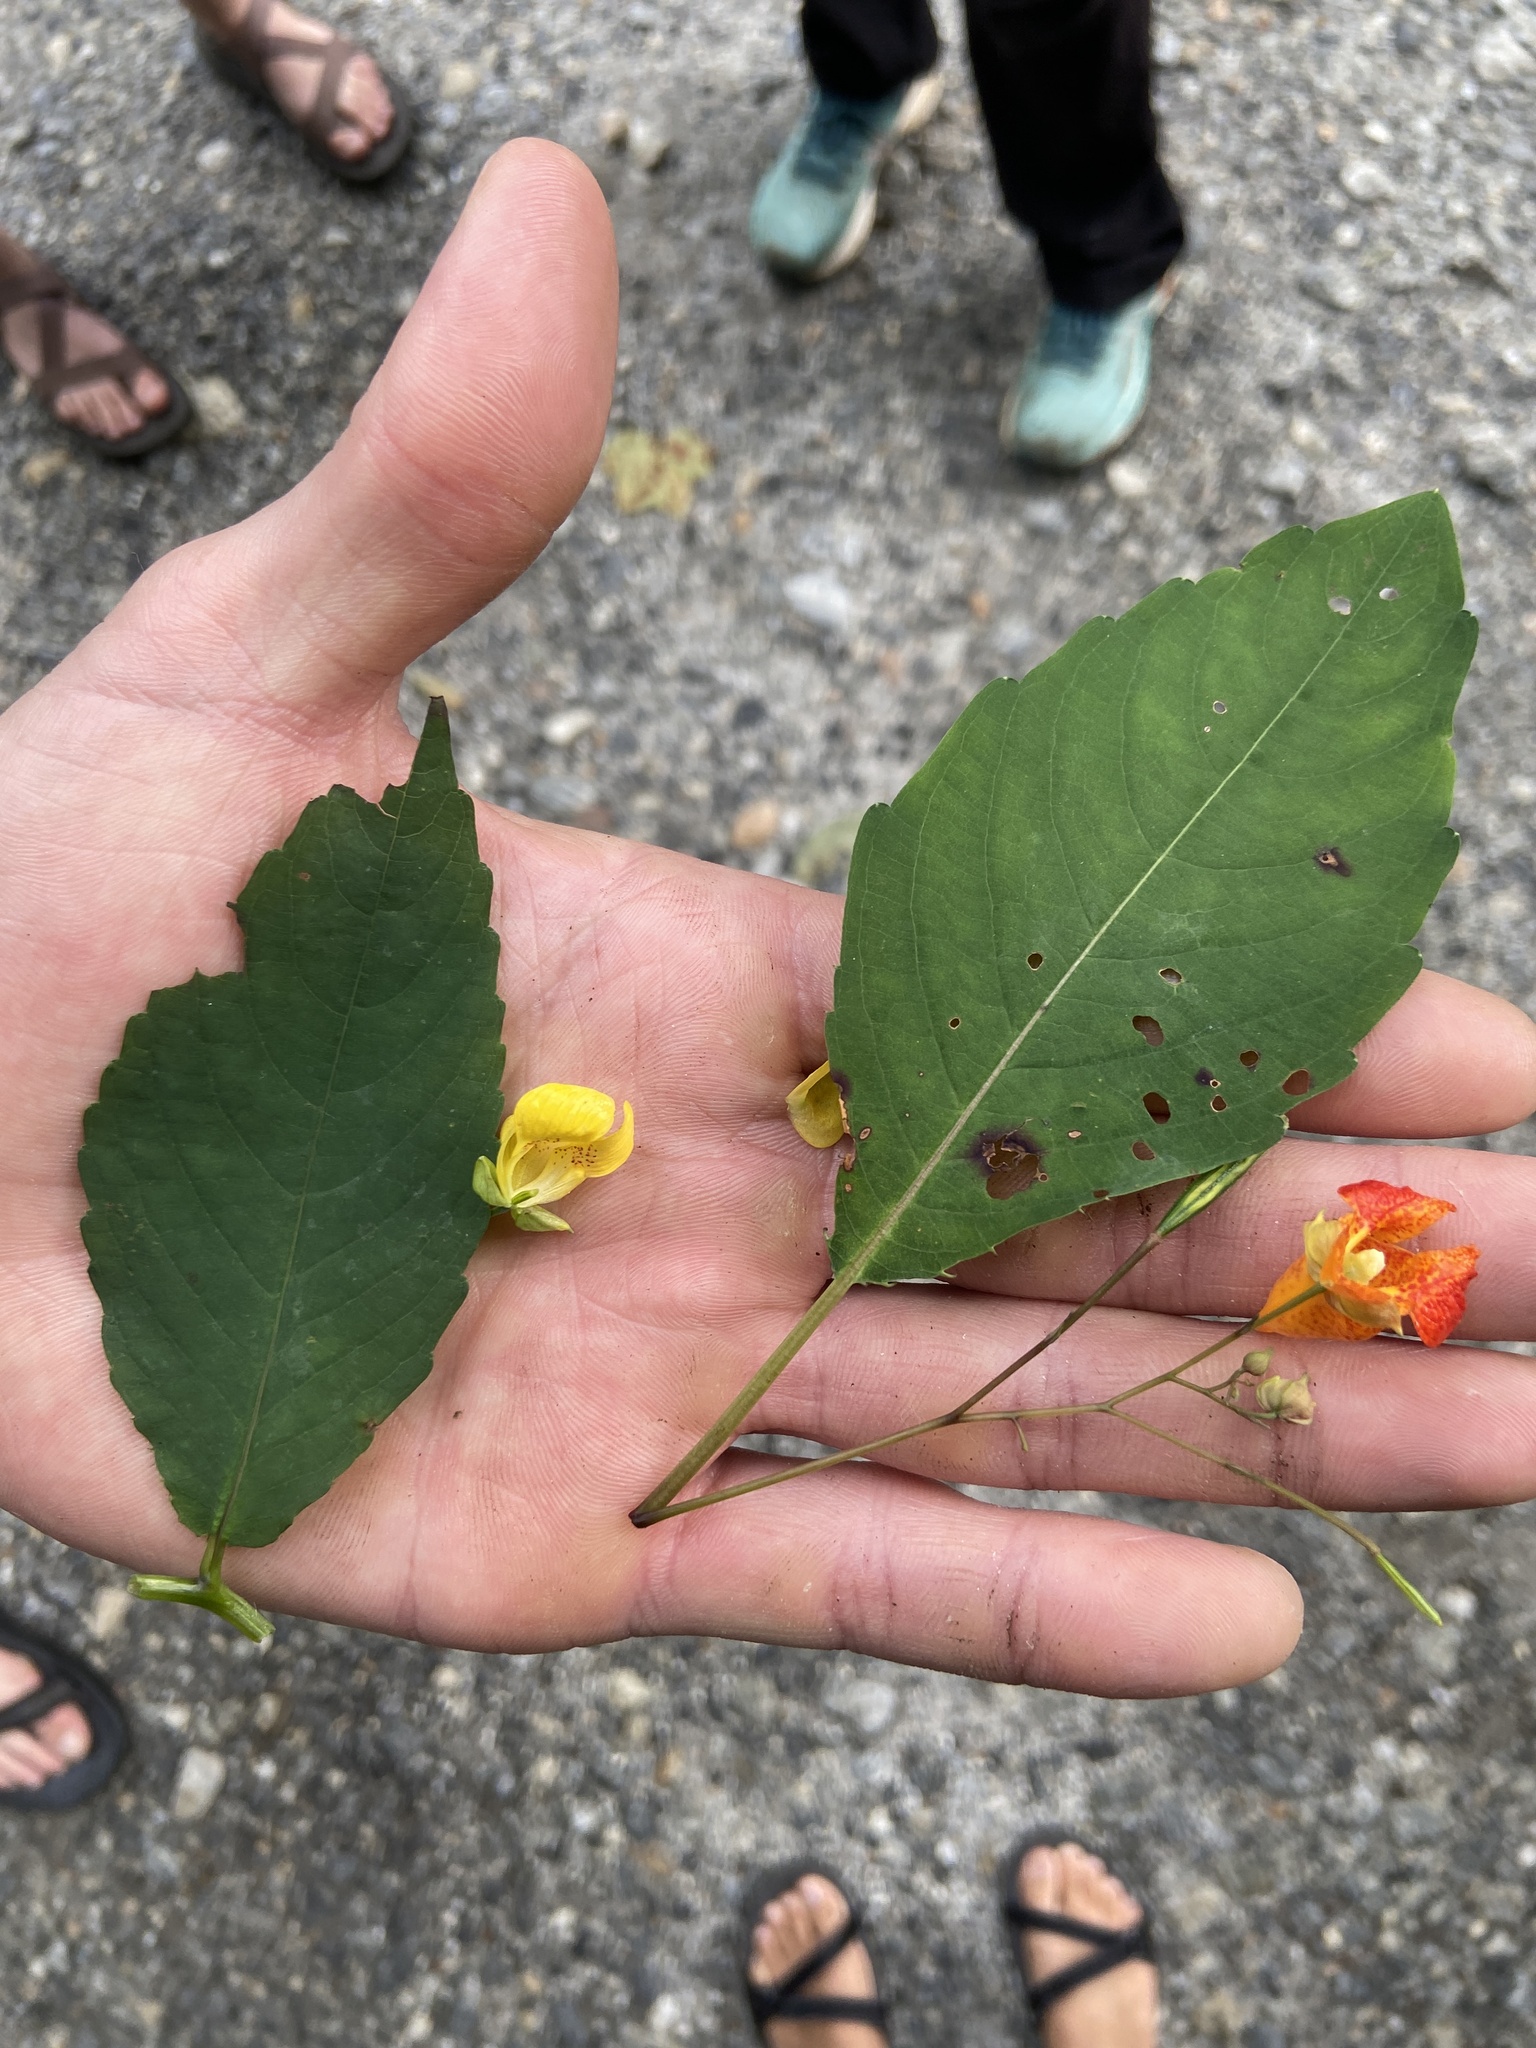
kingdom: Plantae
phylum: Tracheophyta
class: Magnoliopsida
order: Ericales
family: Balsaminaceae
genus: Impatiens
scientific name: Impatiens pallida
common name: Pale snapweed
